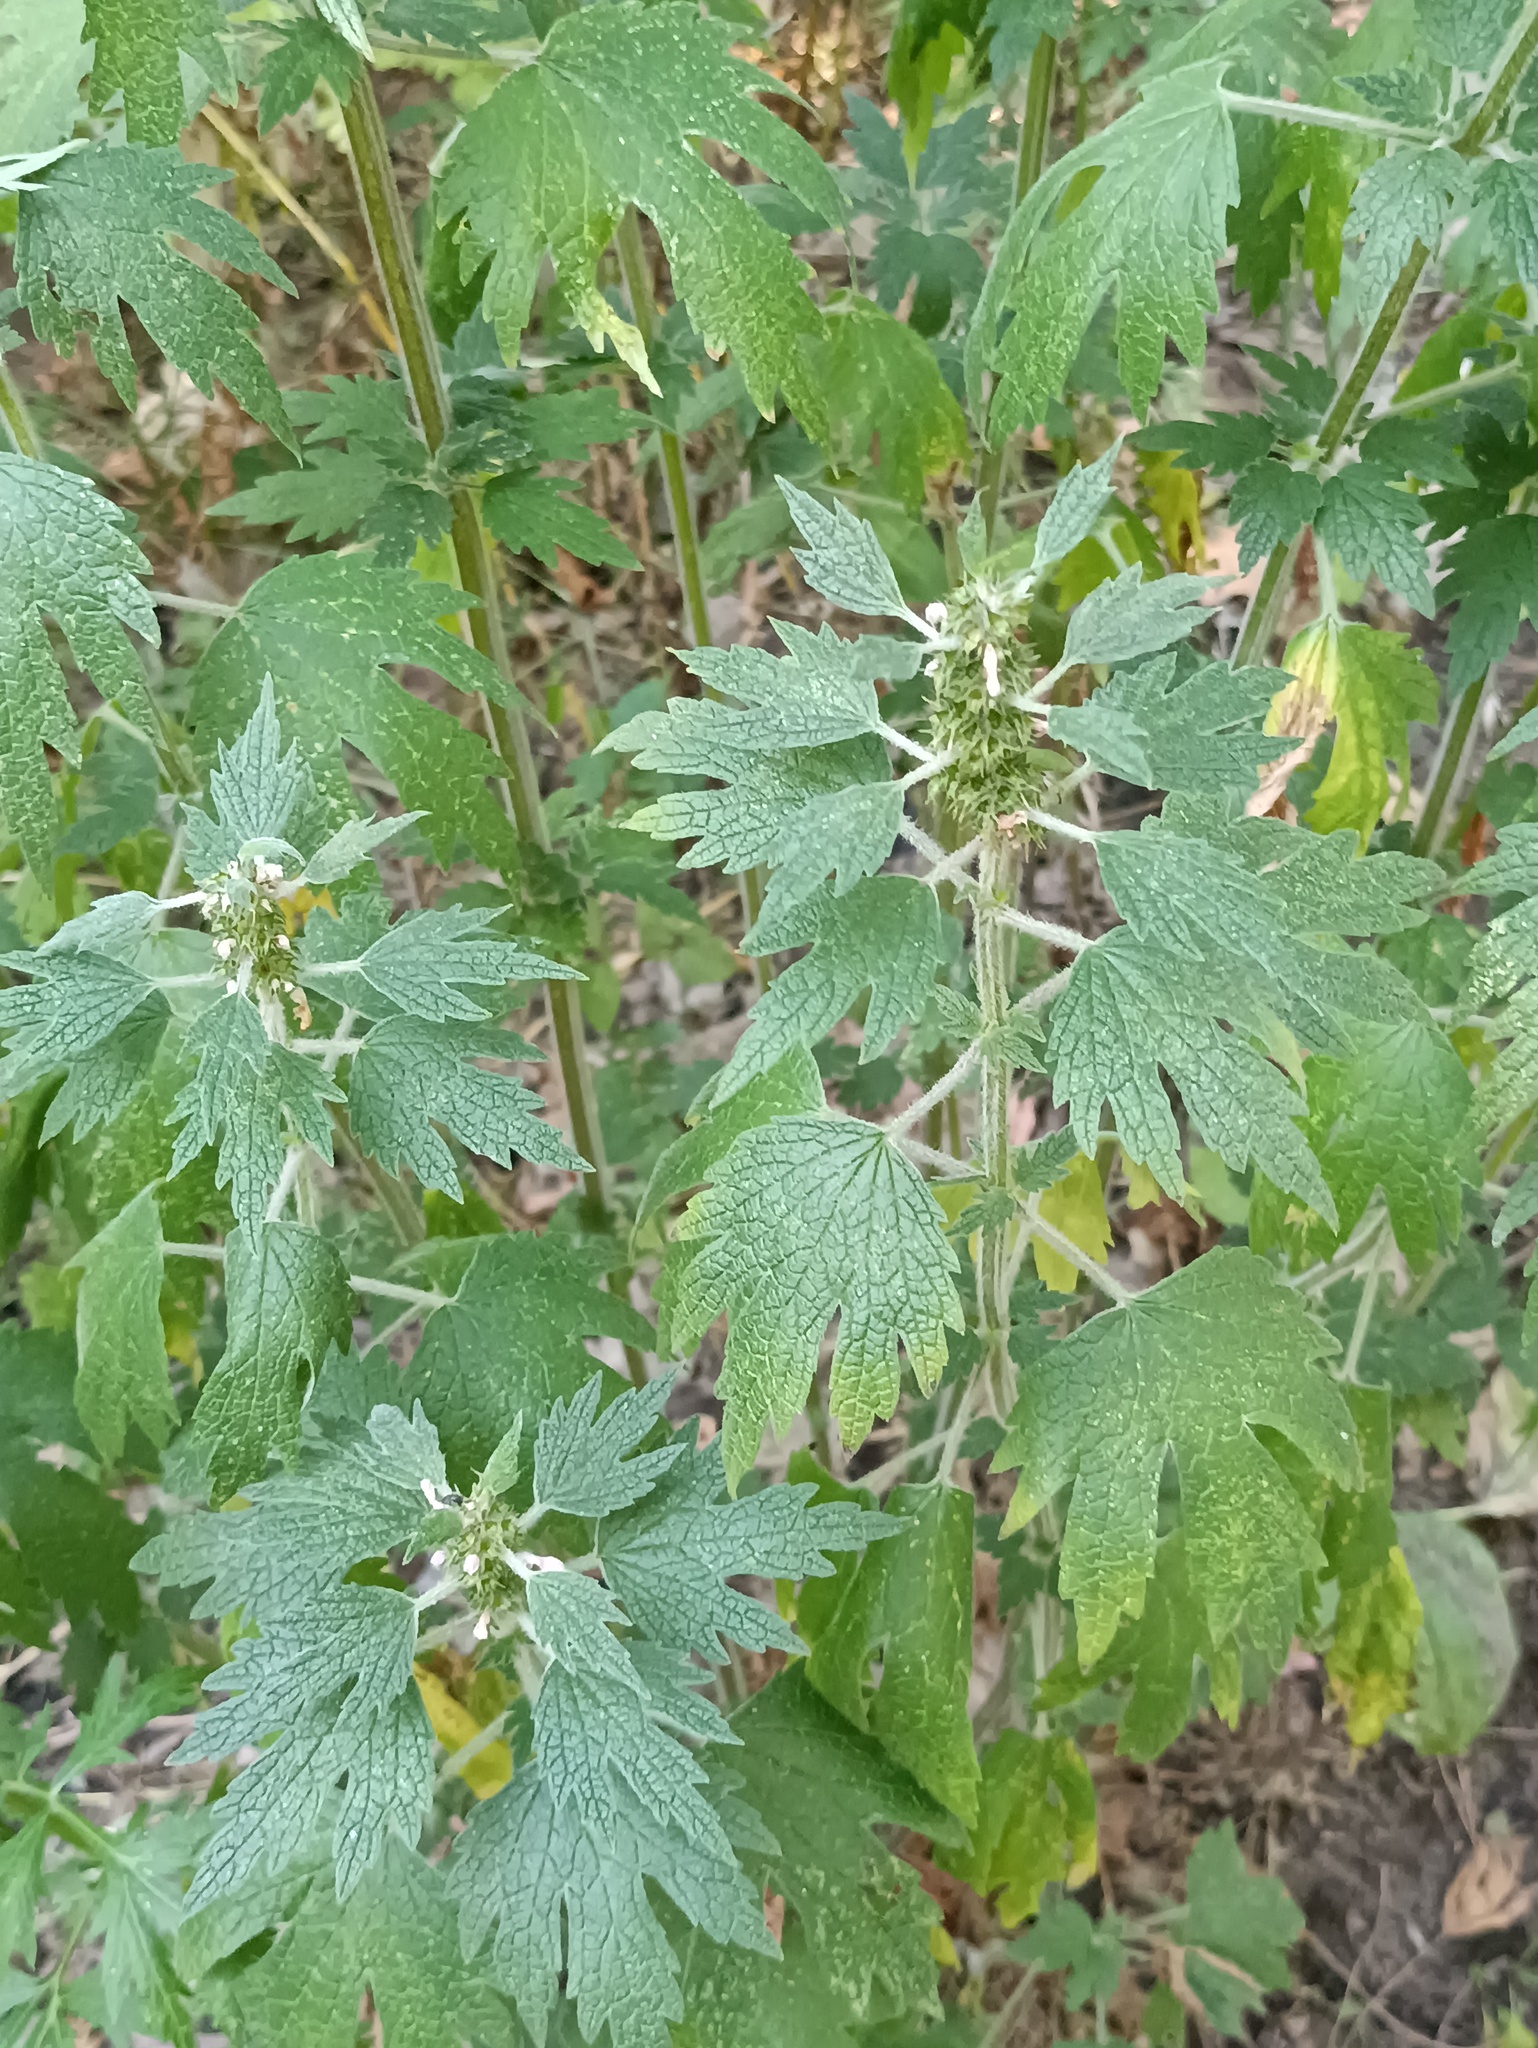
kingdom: Plantae
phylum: Tracheophyta
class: Magnoliopsida
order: Lamiales
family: Lamiaceae
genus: Leonurus
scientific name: Leonurus quinquelobatus
